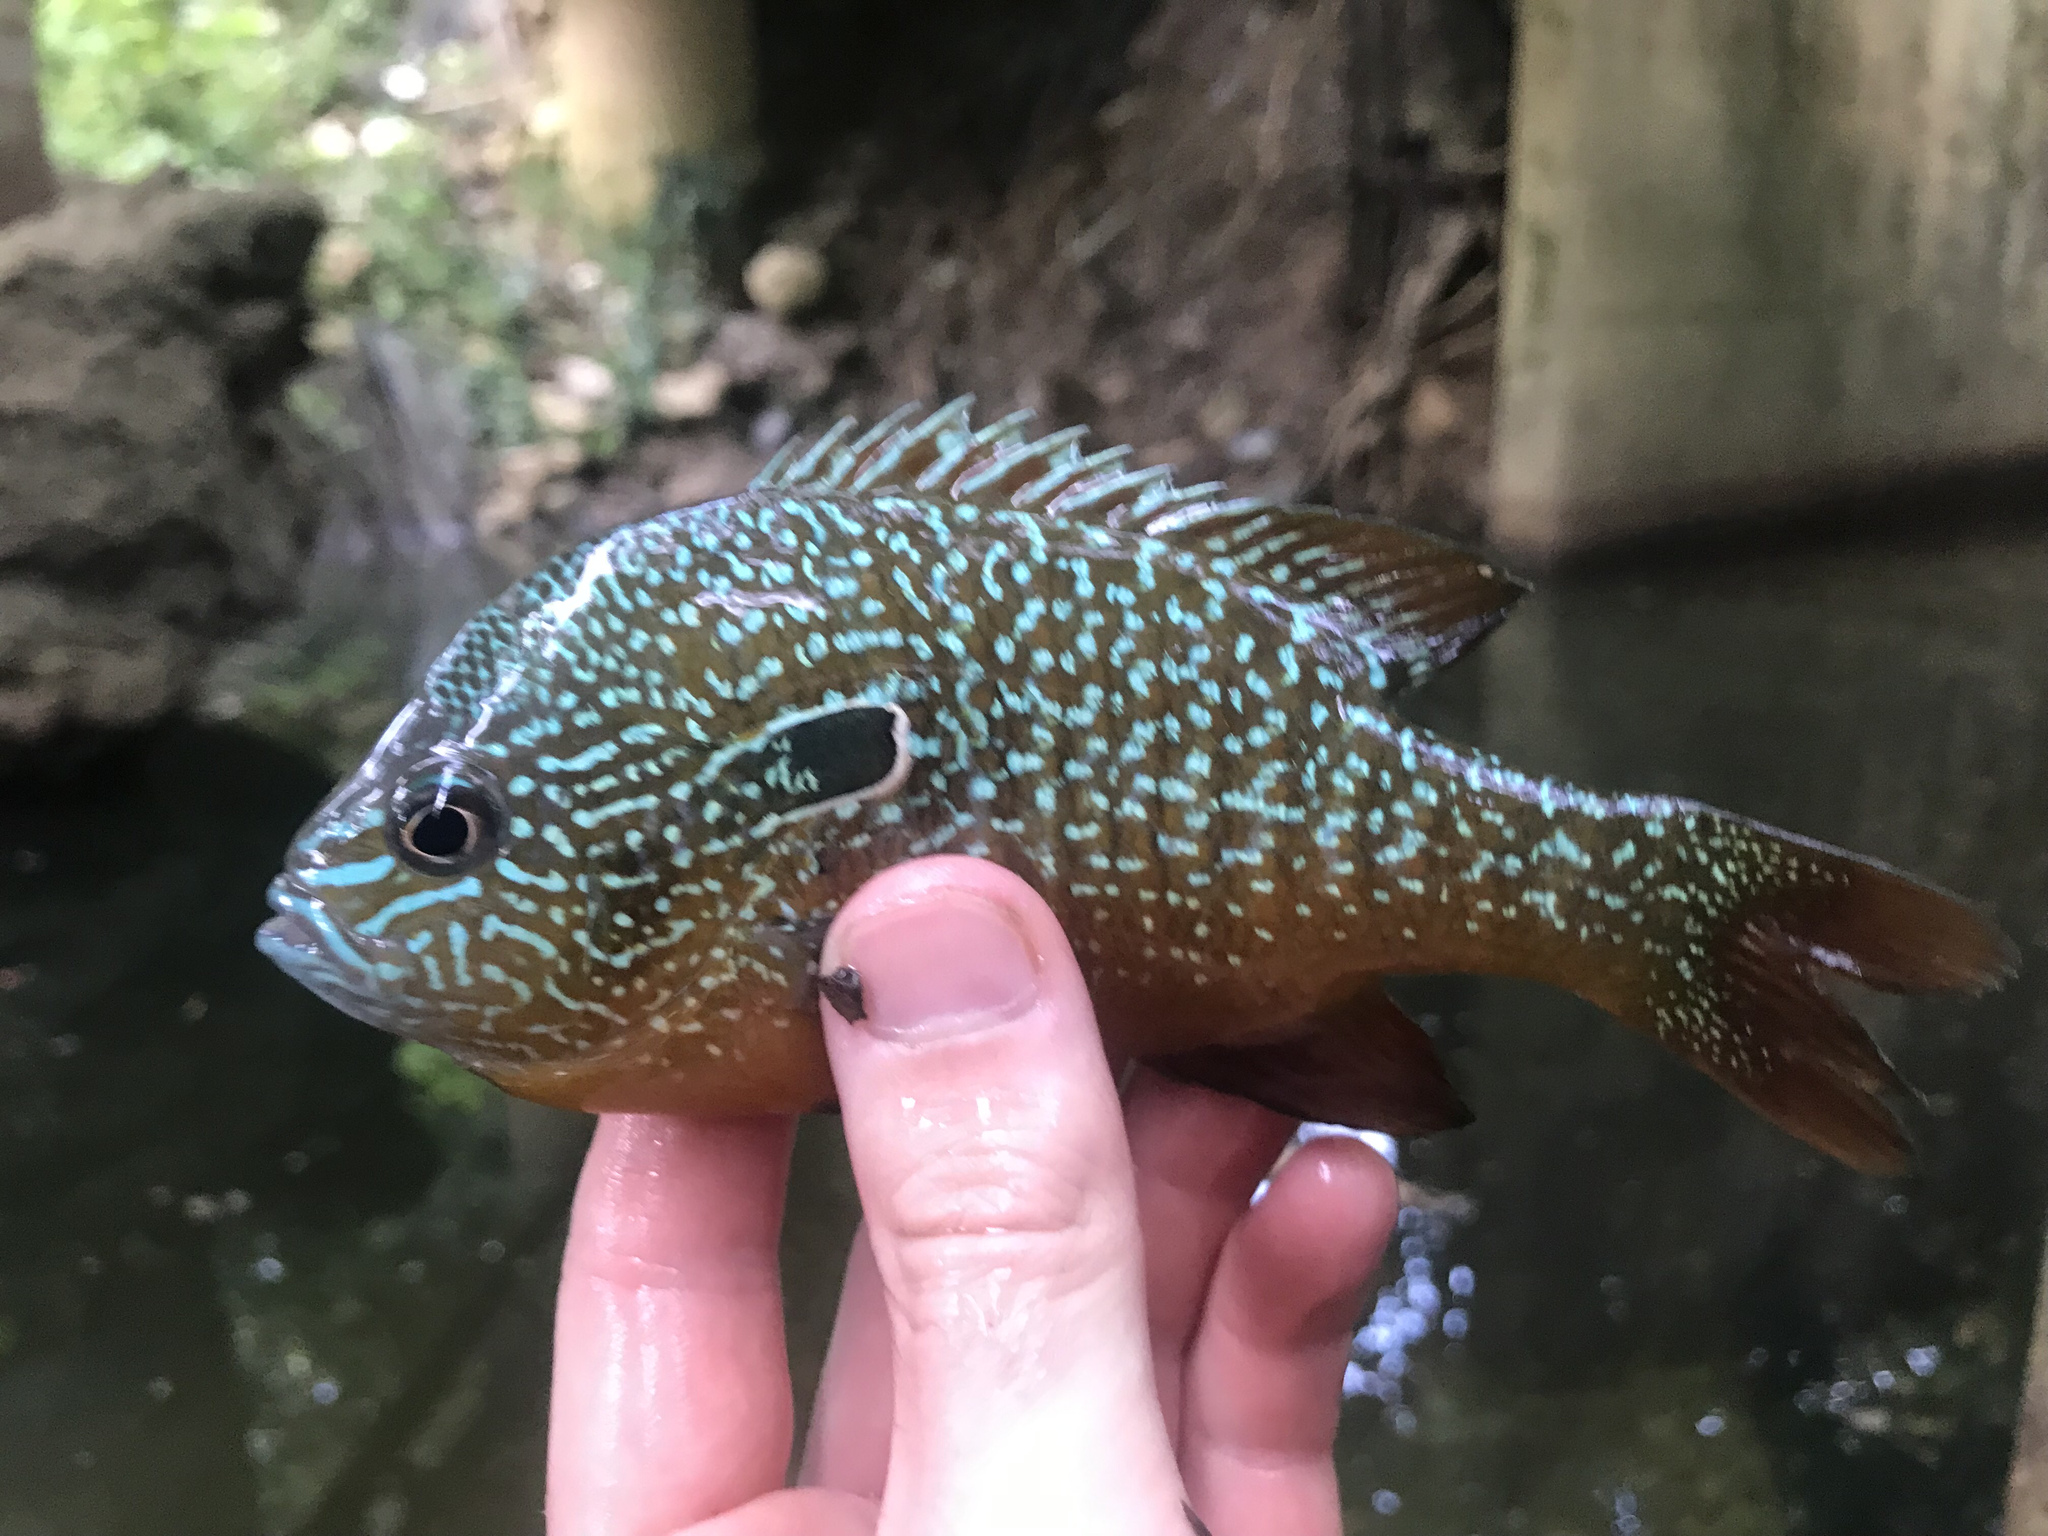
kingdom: Animalia
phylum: Chordata
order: Perciformes
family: Centrarchidae
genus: Lepomis
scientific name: Lepomis megalotis
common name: Longear sunfish
